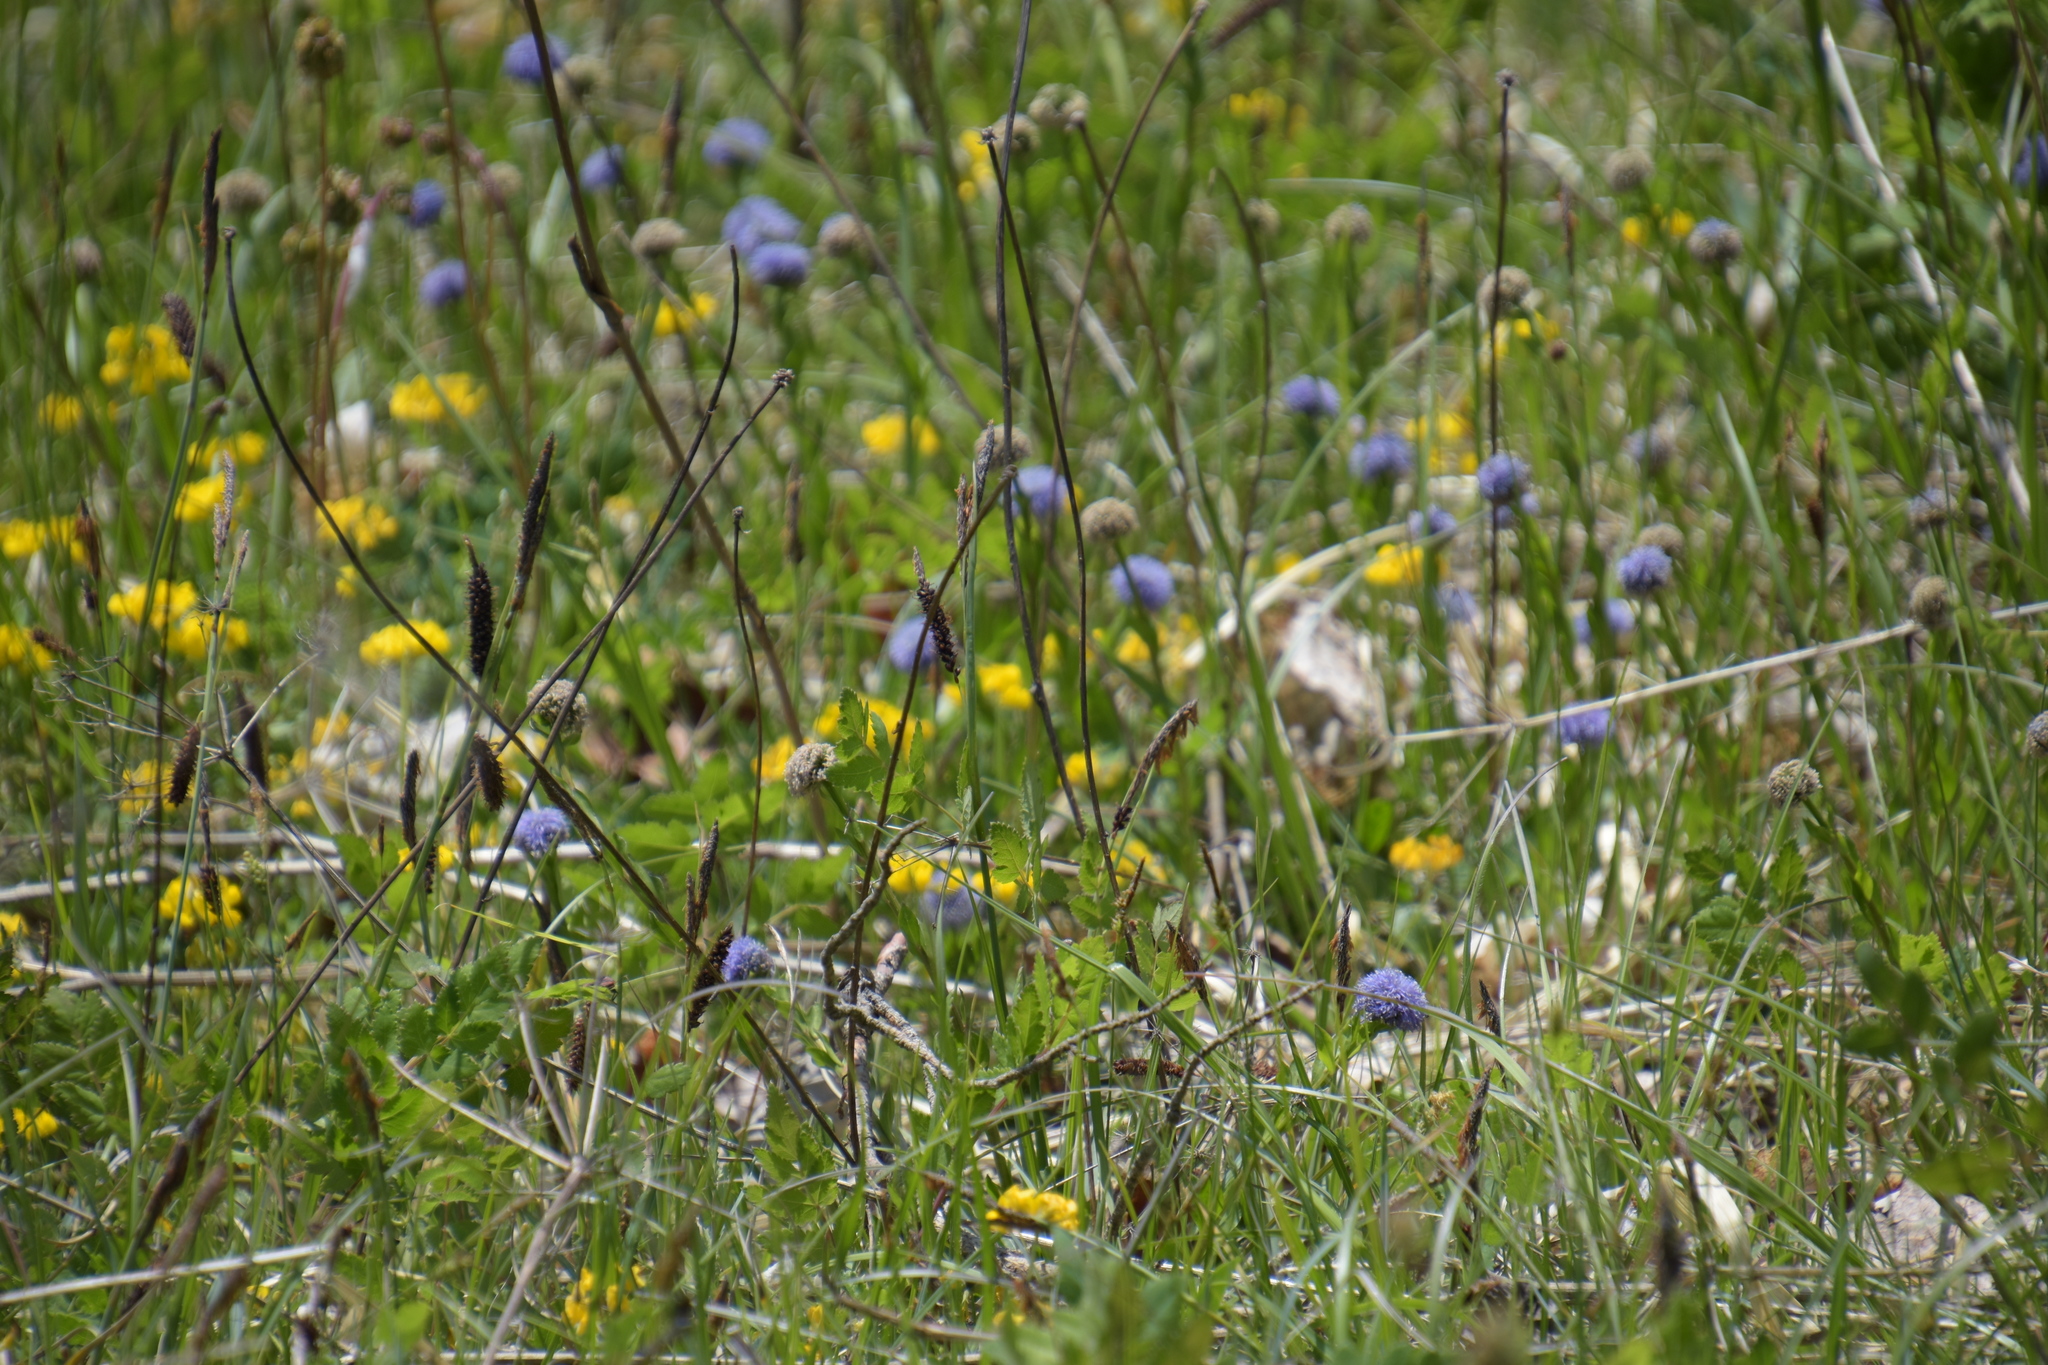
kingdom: Plantae
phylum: Tracheophyta
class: Magnoliopsida
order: Lamiales
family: Plantaginaceae
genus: Globularia
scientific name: Globularia bisnagarica
